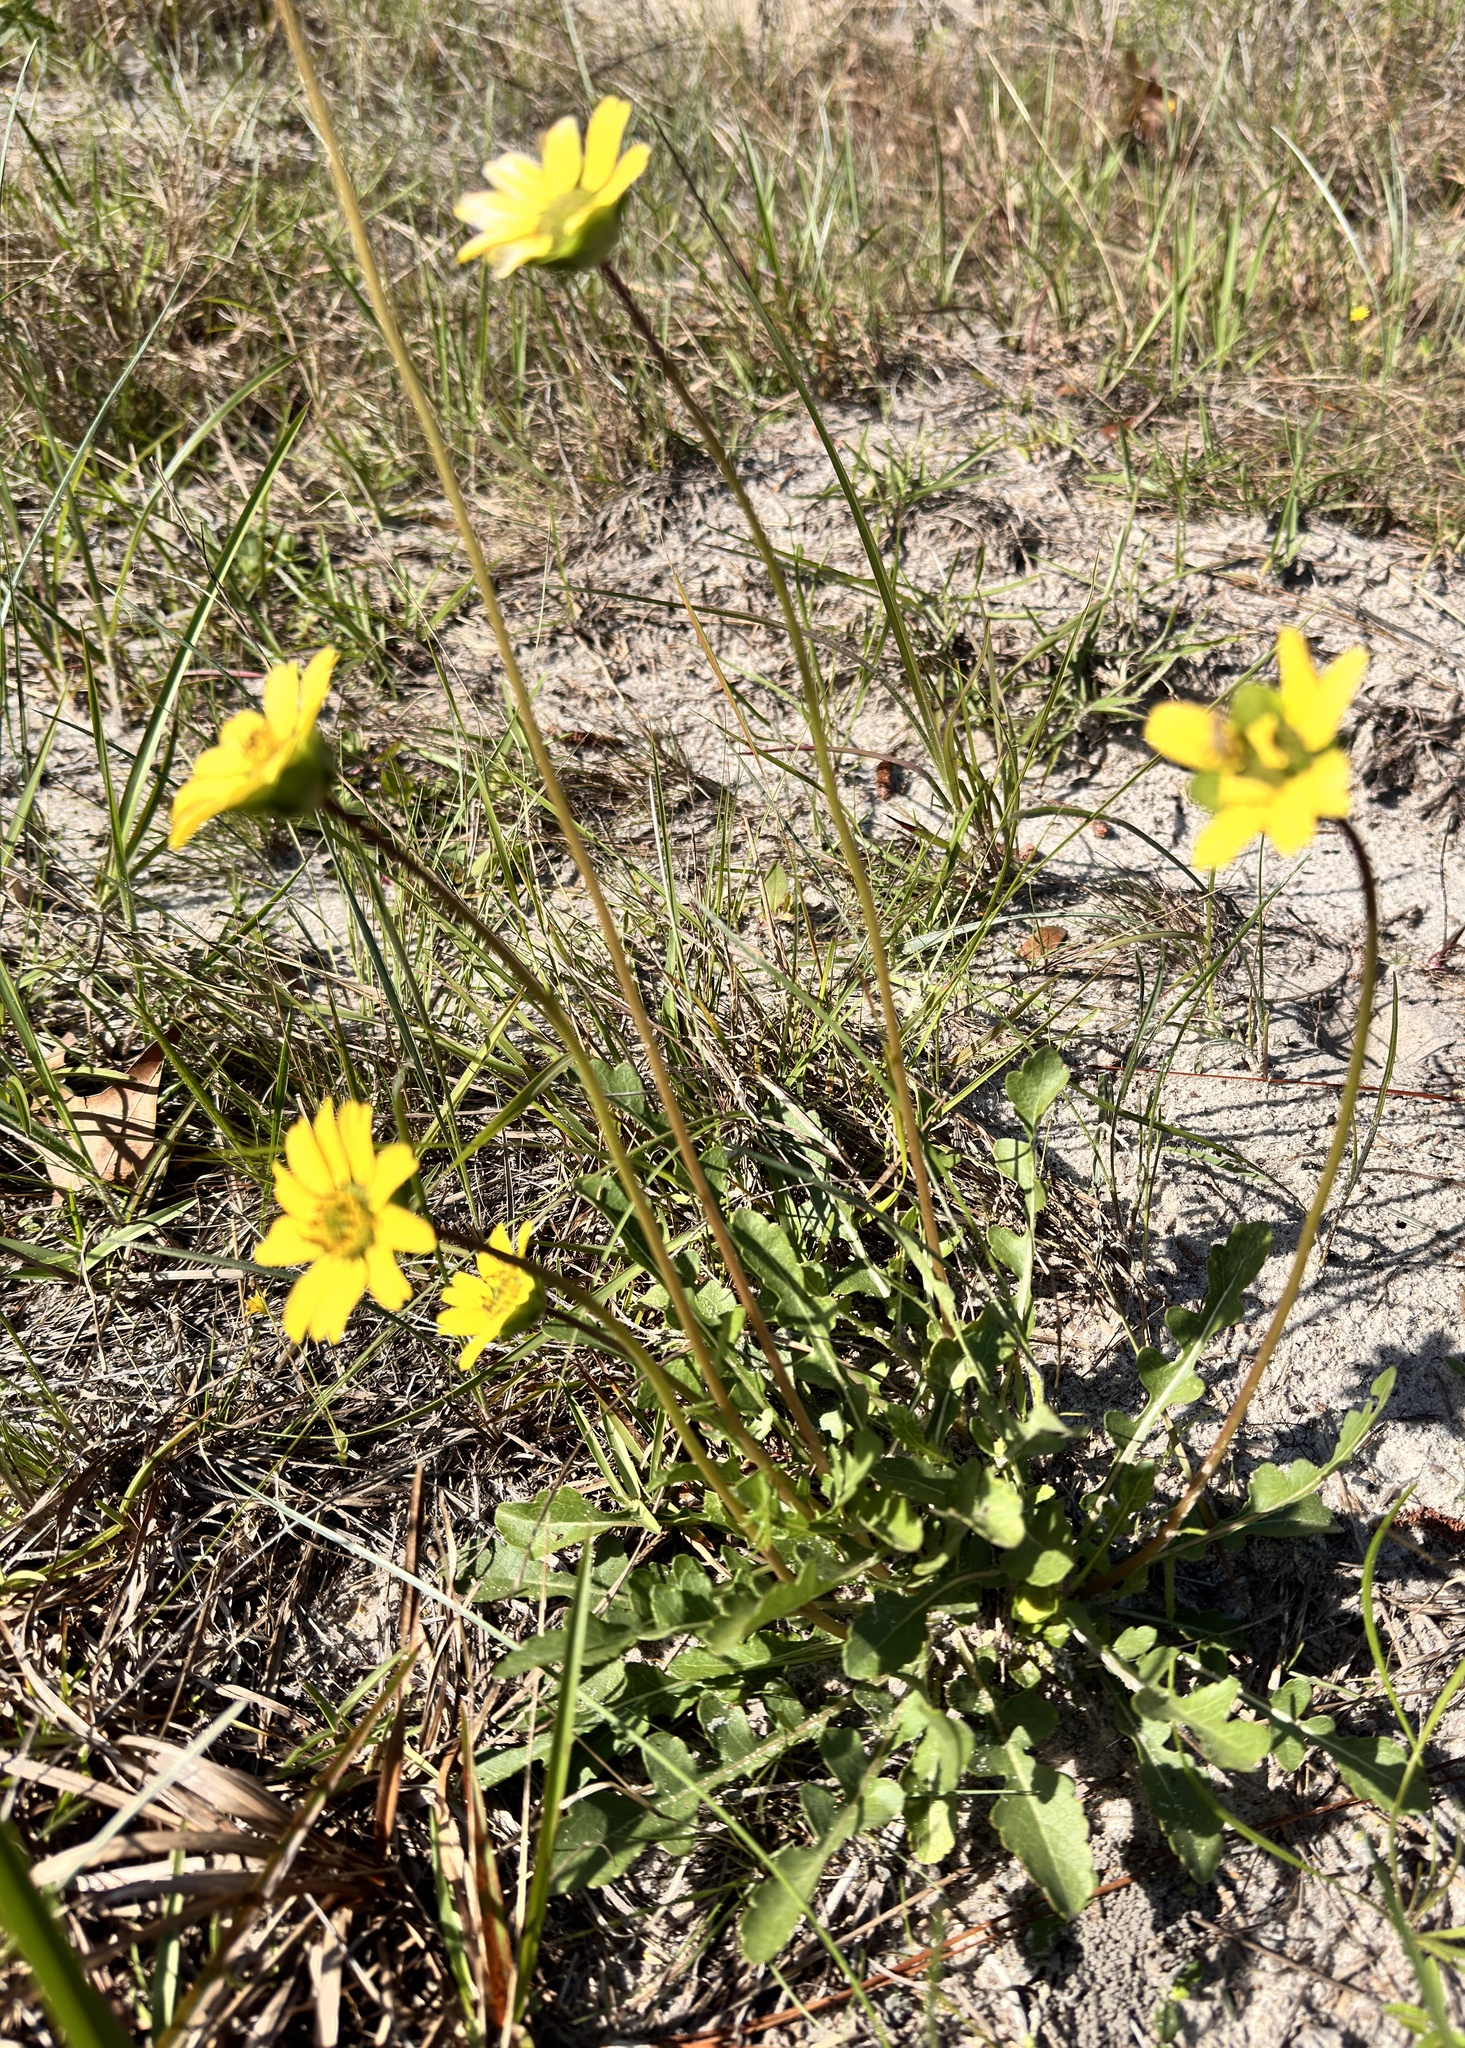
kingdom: Plantae
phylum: Tracheophyta
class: Magnoliopsida
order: Asterales
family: Asteraceae
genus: Berlandiera
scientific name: Berlandiera subacaulis
